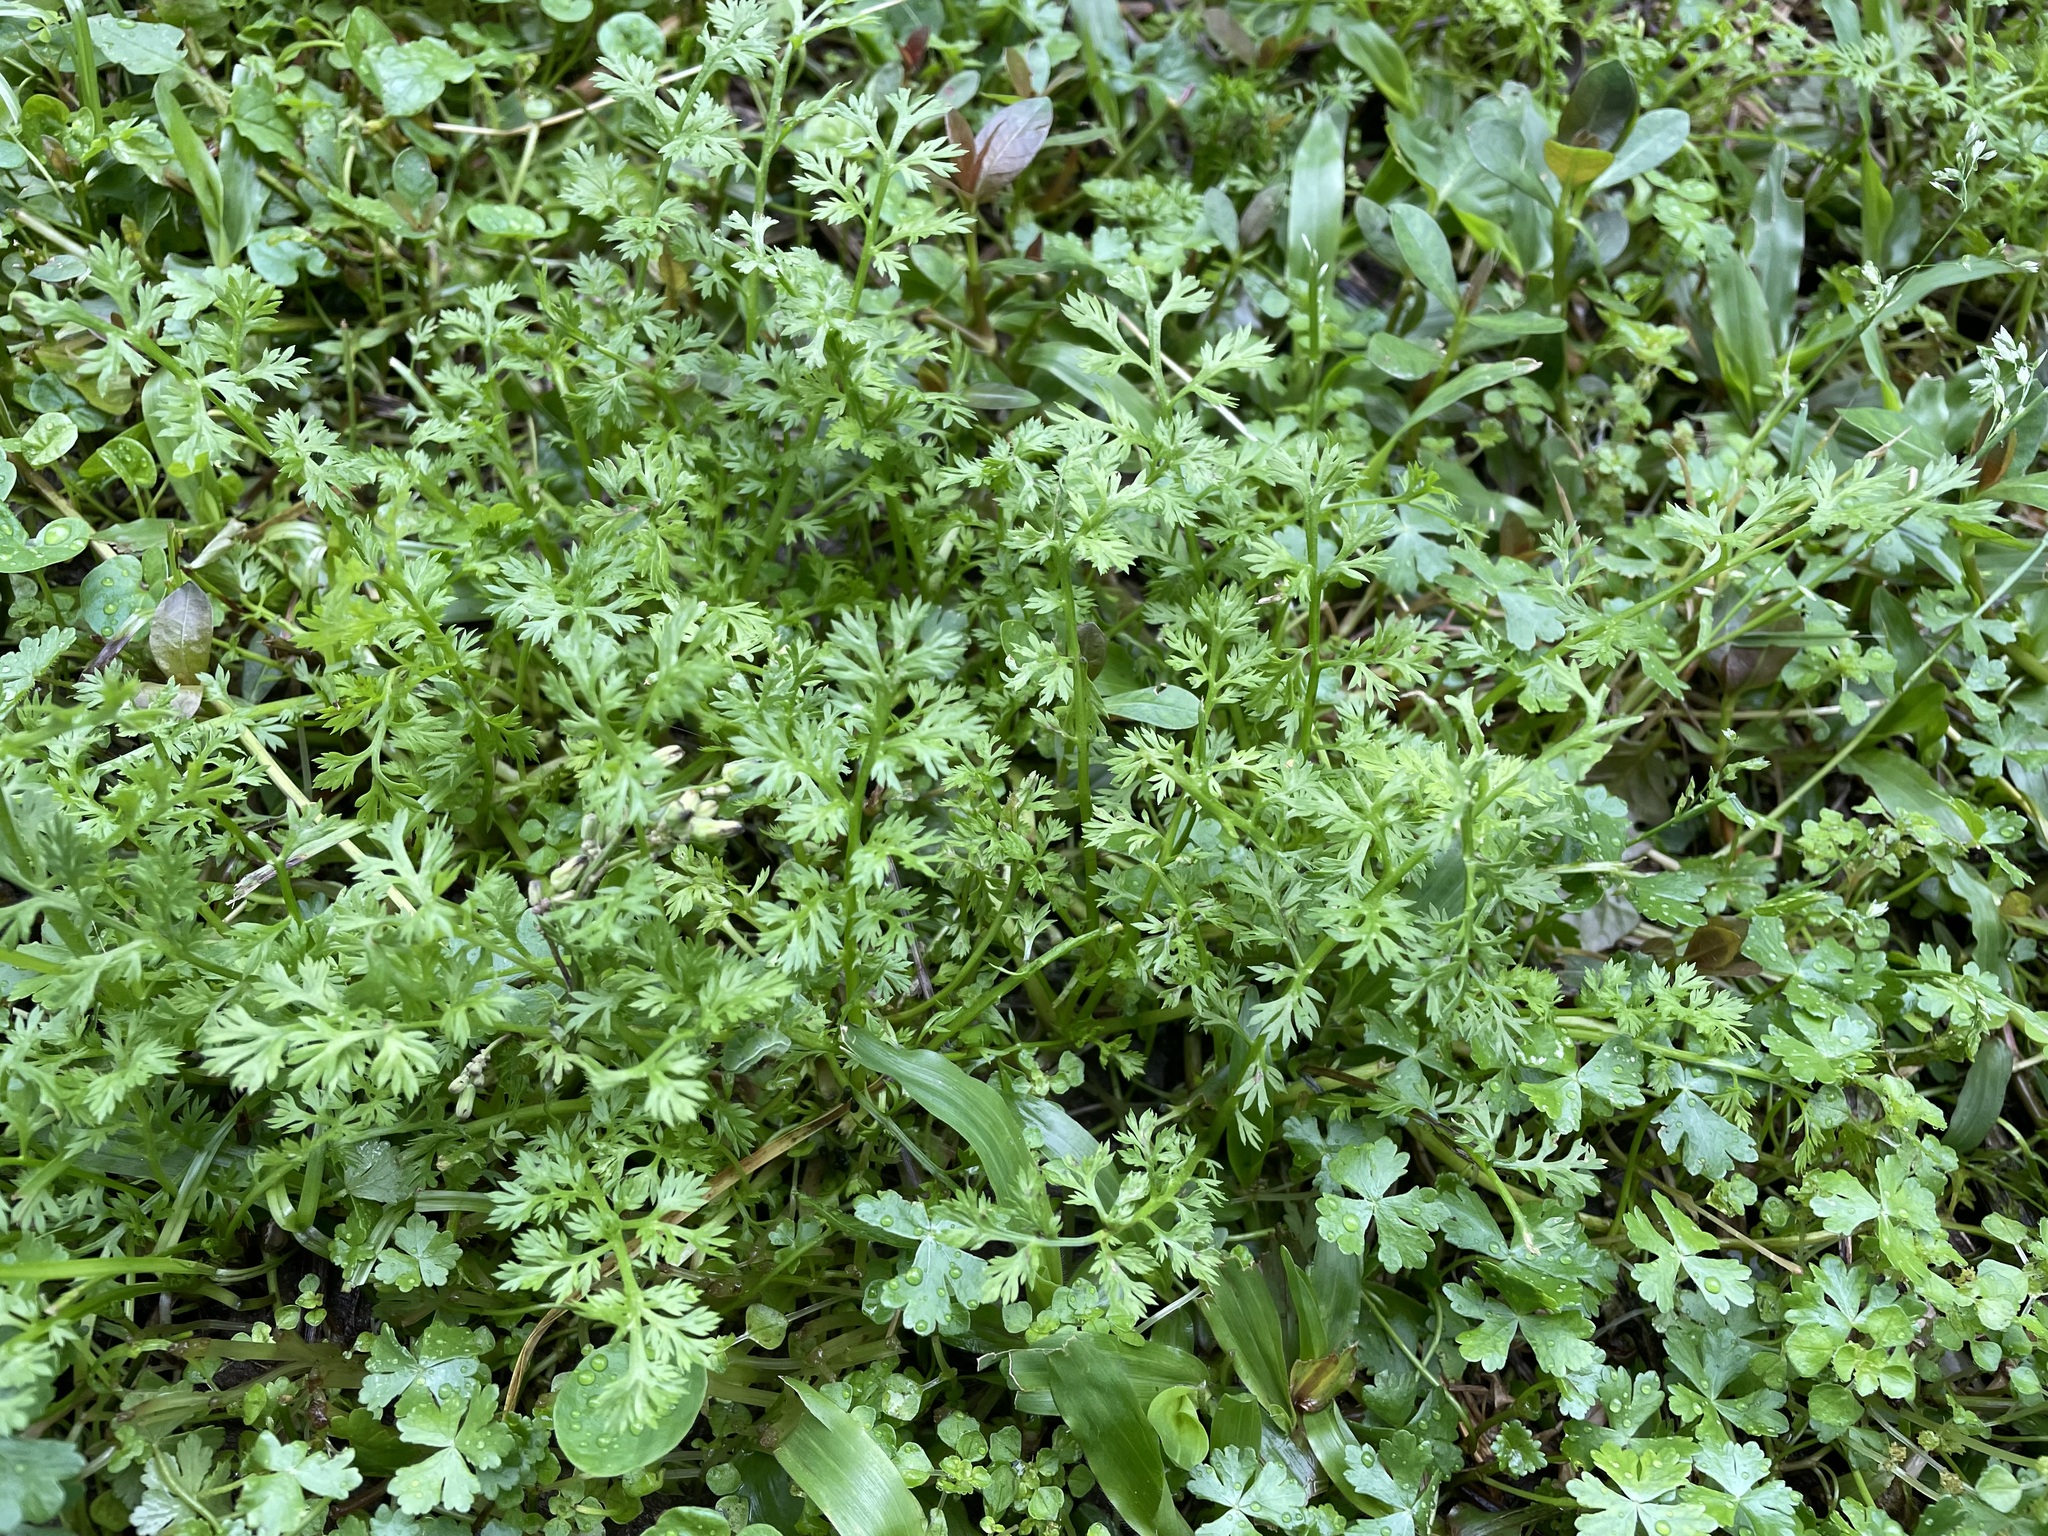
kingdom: Plantae
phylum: Tracheophyta
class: Magnoliopsida
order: Asterales
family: Asteraceae
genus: Soliva
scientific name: Soliva anthemifolia
